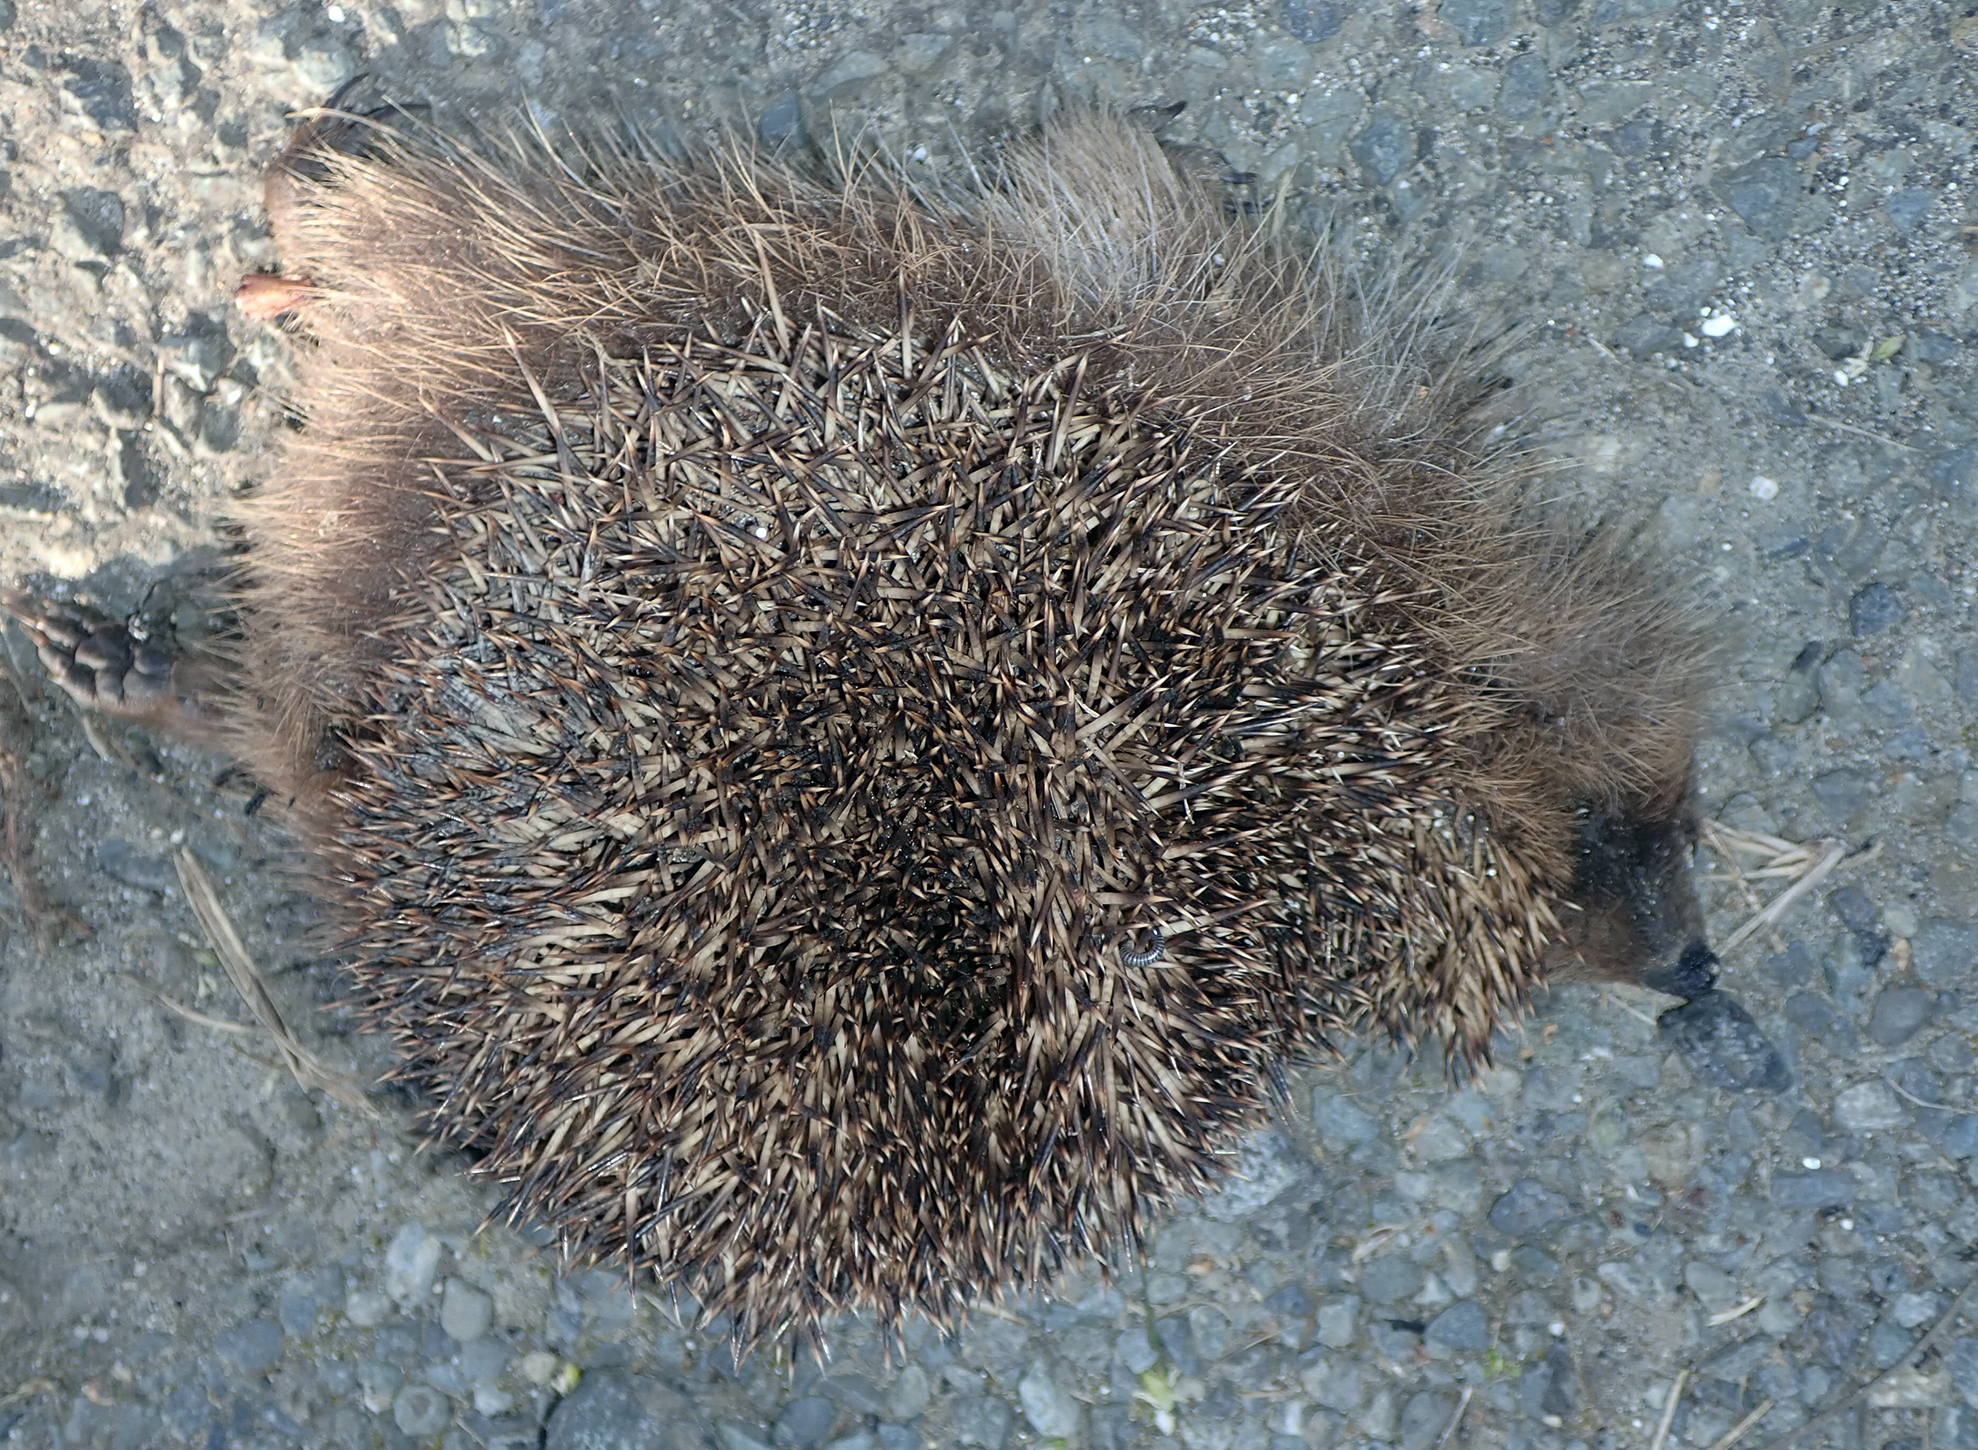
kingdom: Animalia
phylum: Chordata
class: Mammalia
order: Erinaceomorpha
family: Erinaceidae
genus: Erinaceus
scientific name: Erinaceus europaeus
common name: West european hedgehog
